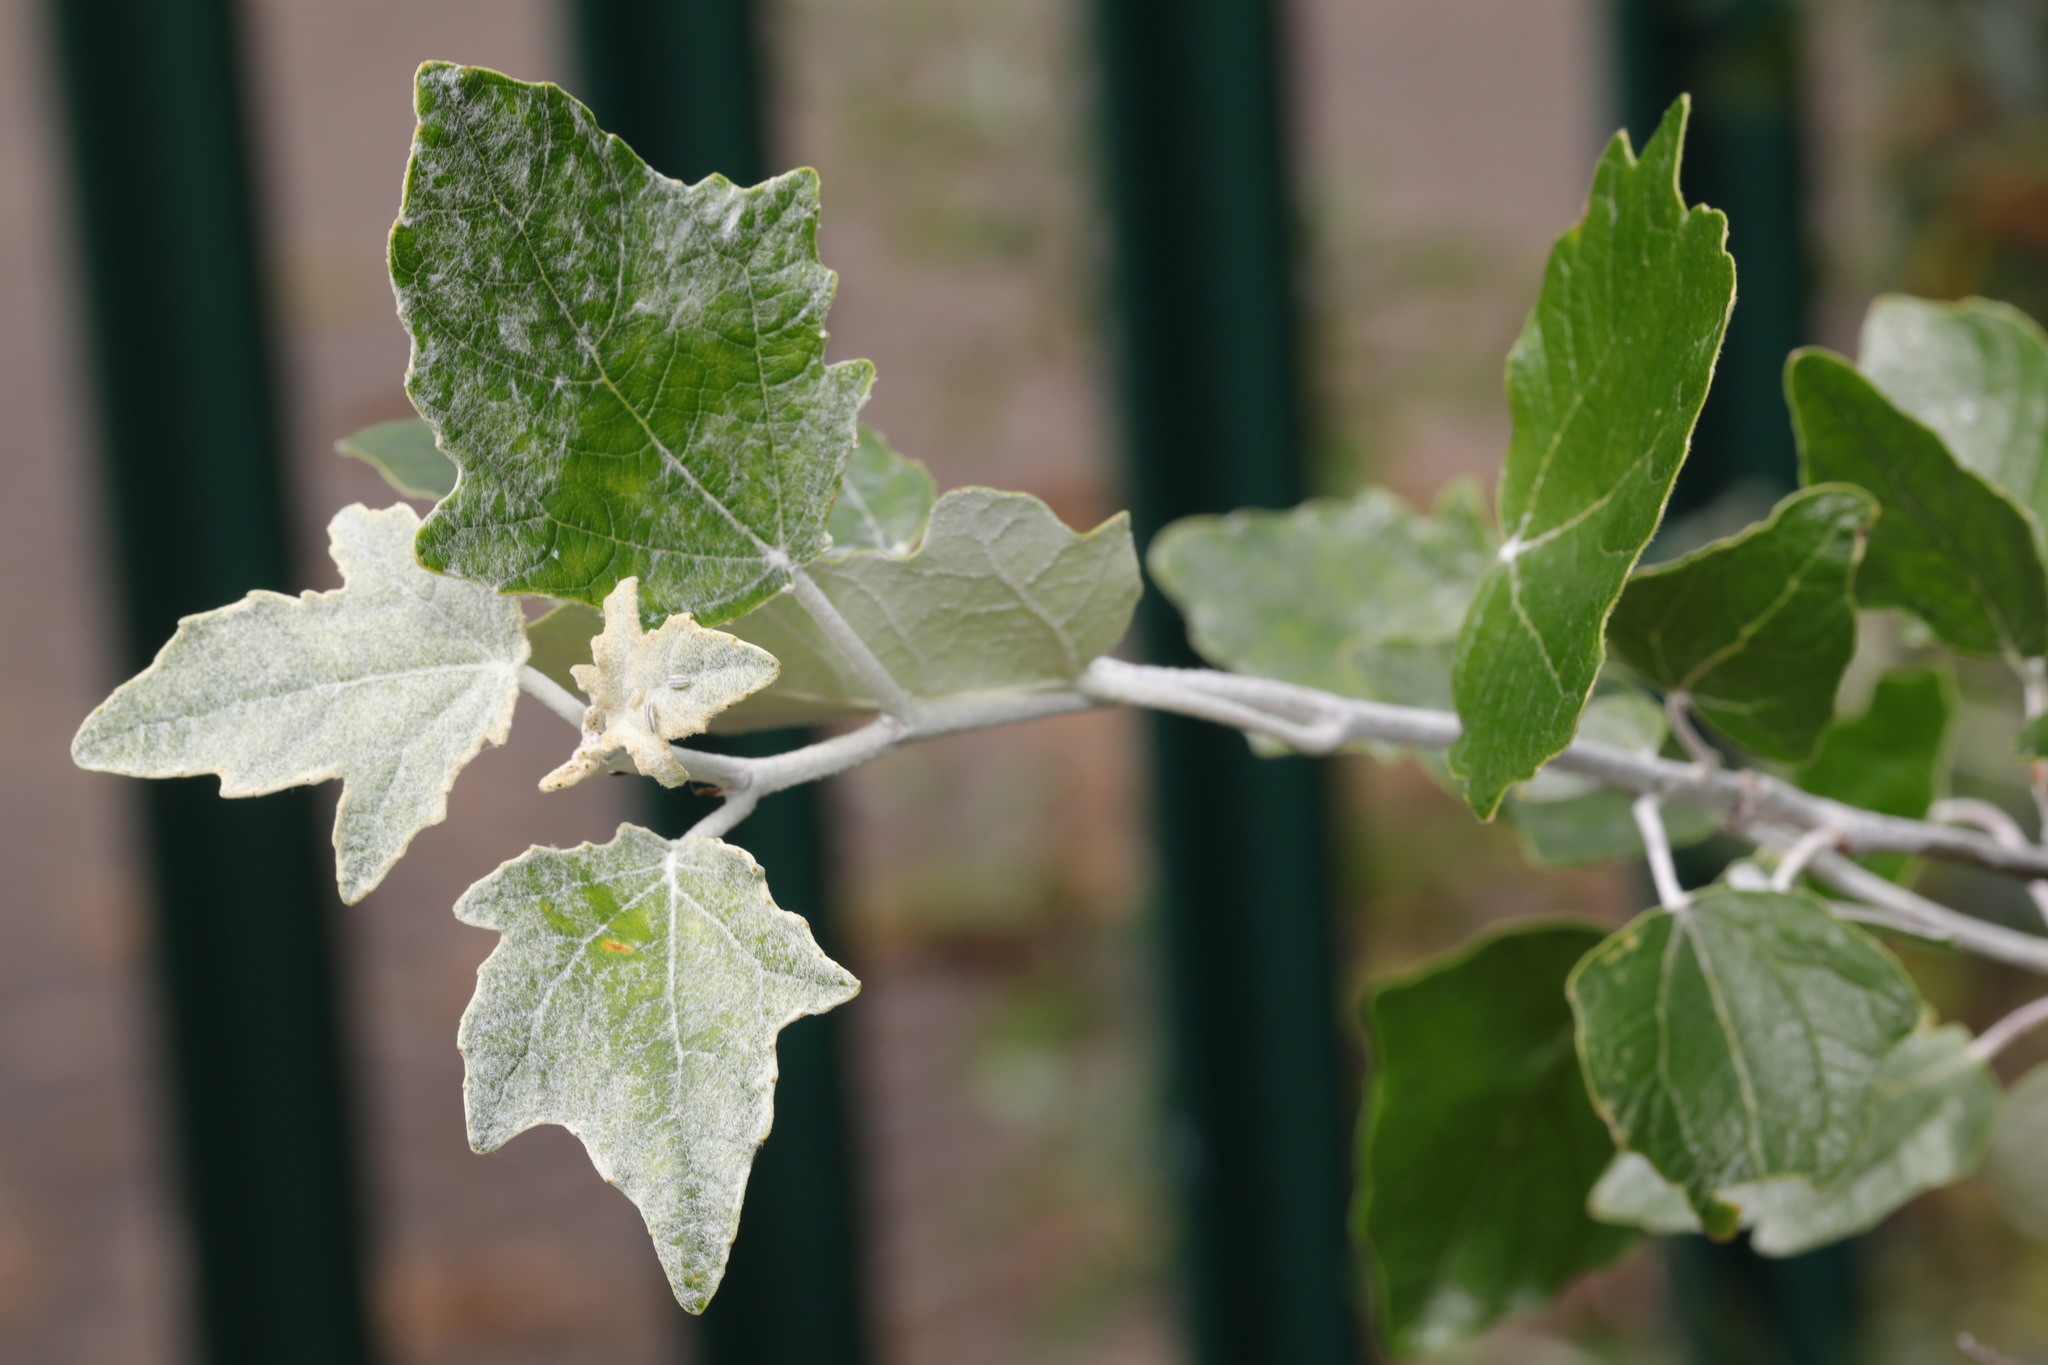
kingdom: Plantae
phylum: Tracheophyta
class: Magnoliopsida
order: Malpighiales
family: Salicaceae
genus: Populus
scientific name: Populus alba
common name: White poplar
